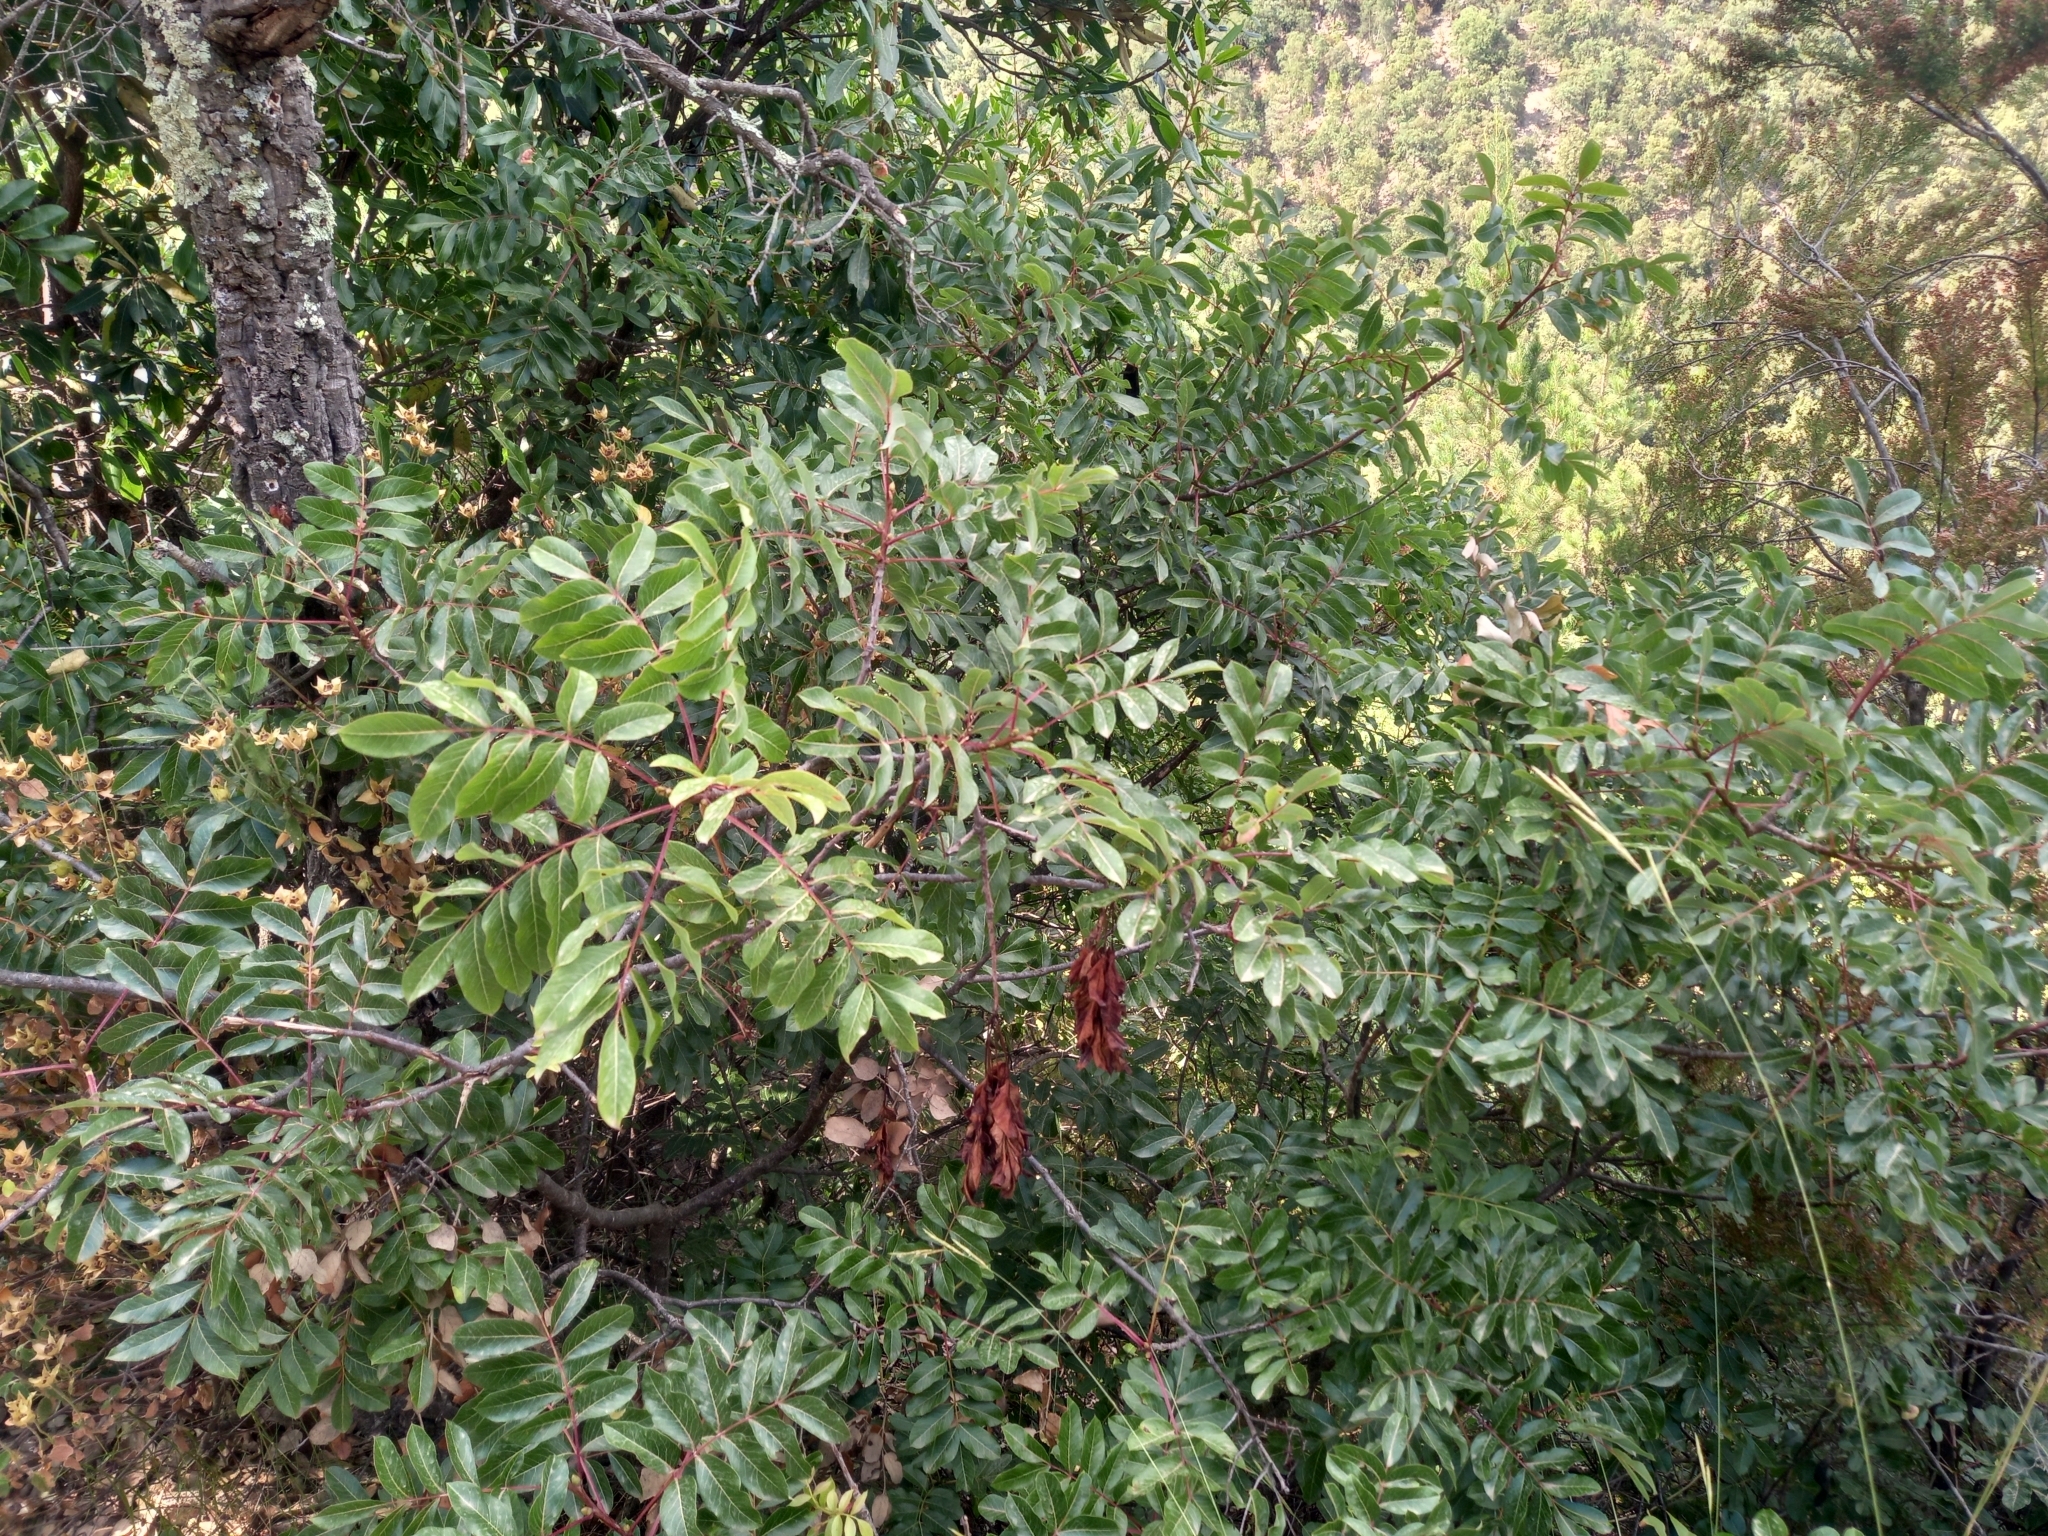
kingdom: Plantae
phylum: Tracheophyta
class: Magnoliopsida
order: Sapindales
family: Anacardiaceae
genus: Pistacia
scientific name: Pistacia terebinthus
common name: Terebinth
